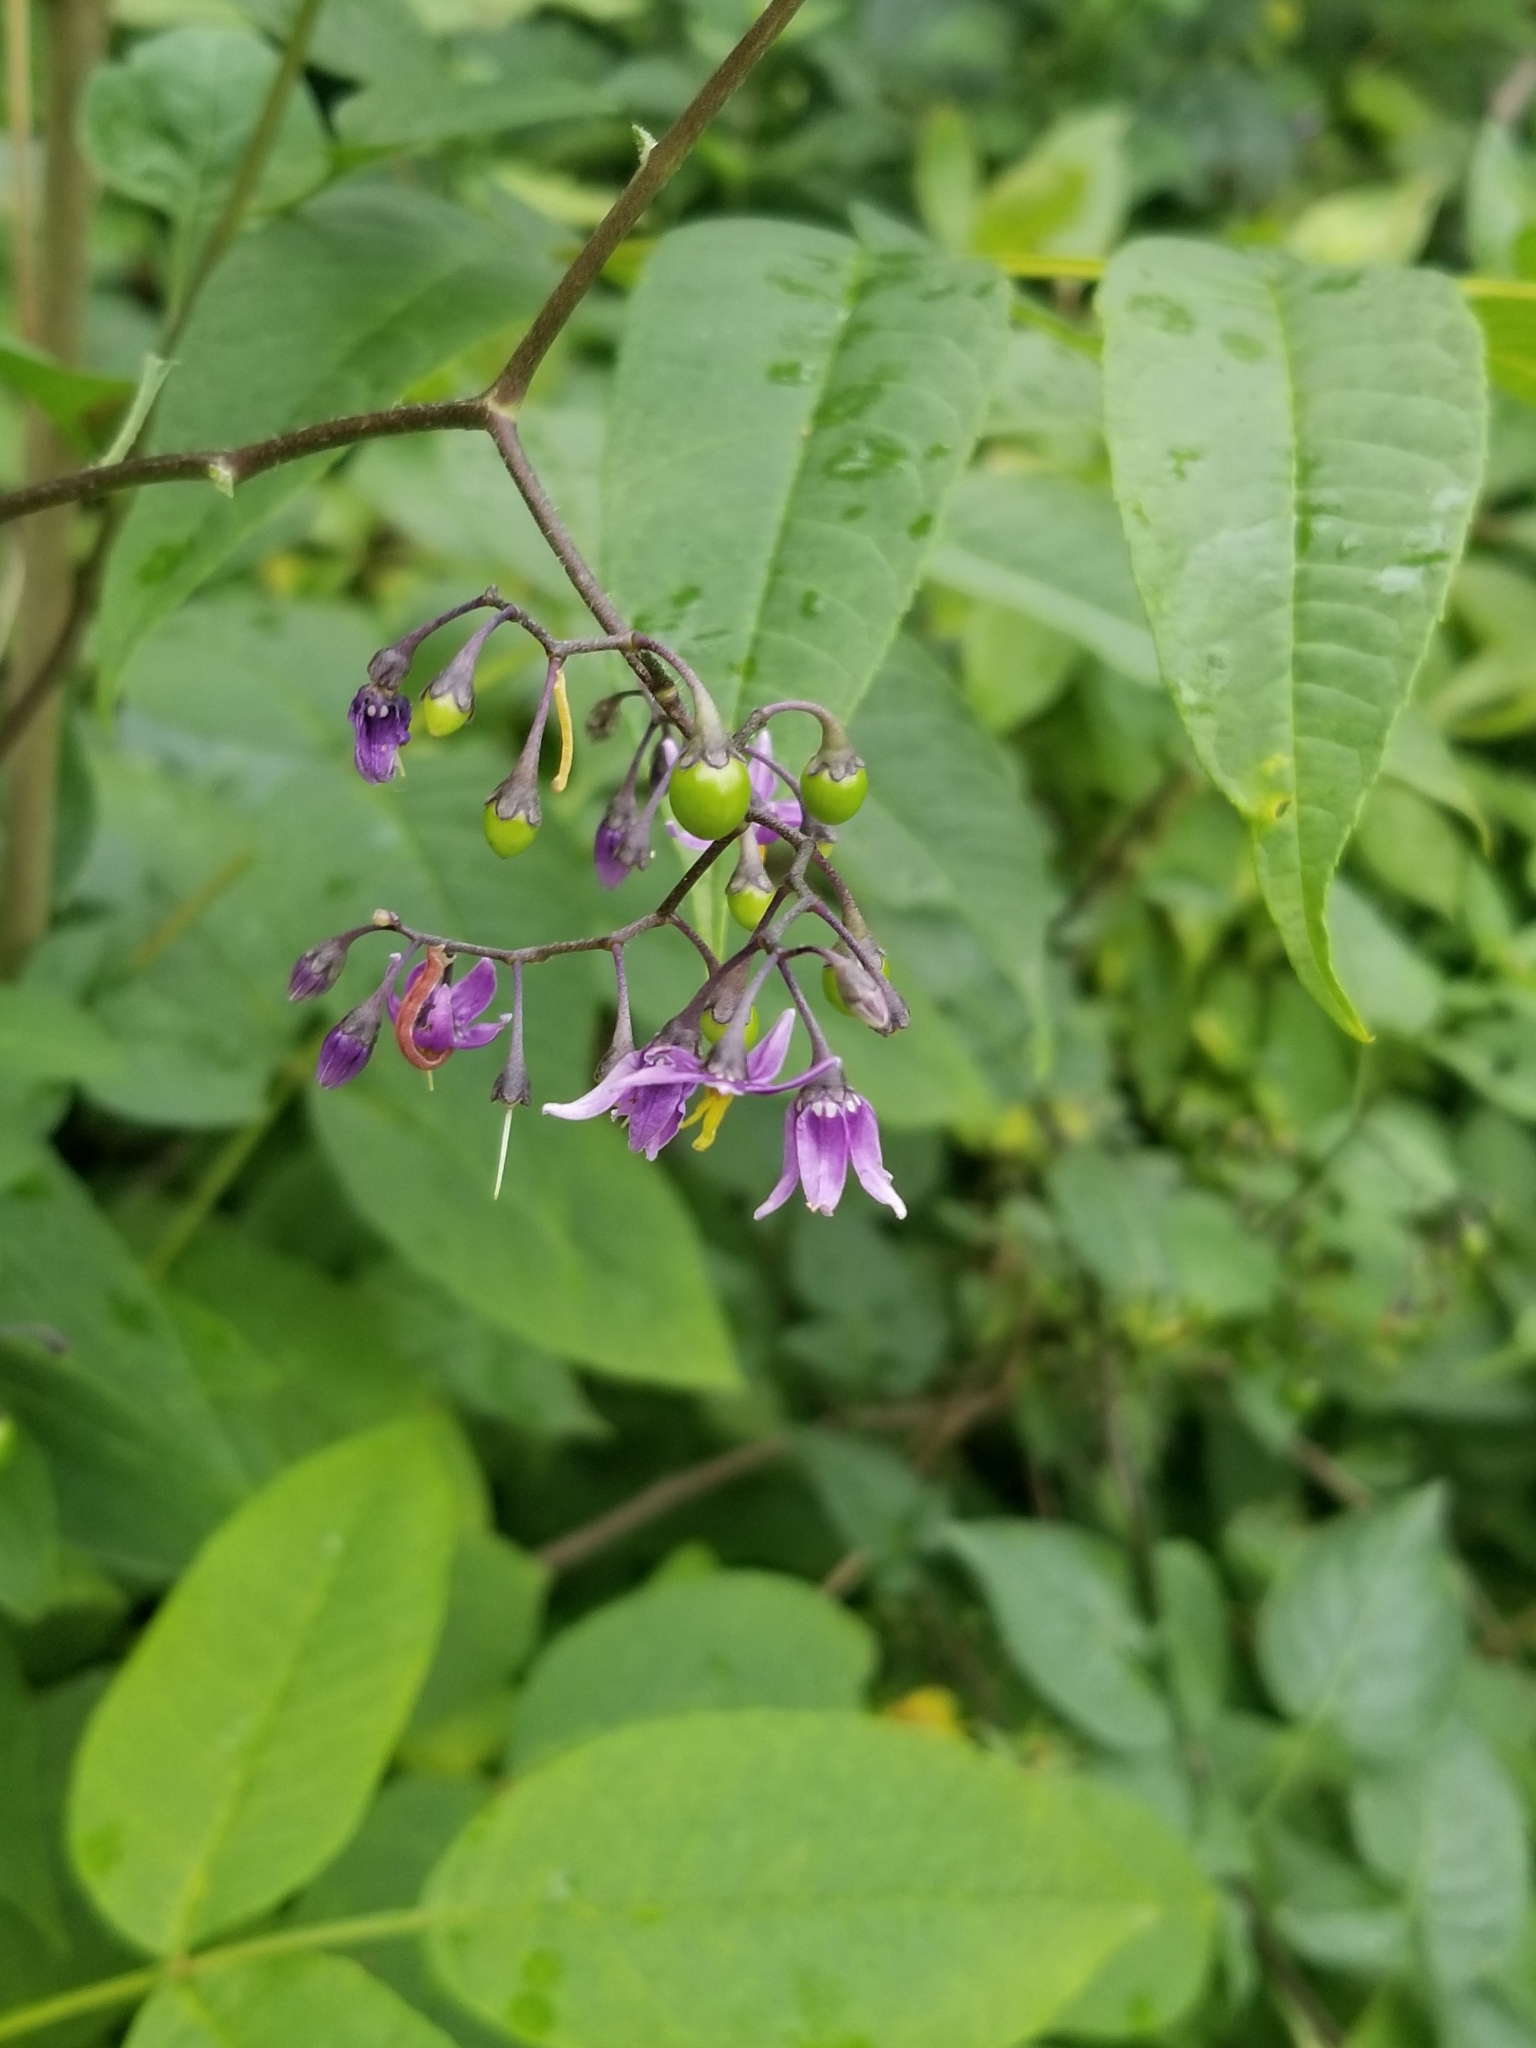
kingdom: Plantae
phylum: Tracheophyta
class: Magnoliopsida
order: Solanales
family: Solanaceae
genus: Solanum
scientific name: Solanum dulcamara
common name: Climbing nightshade
